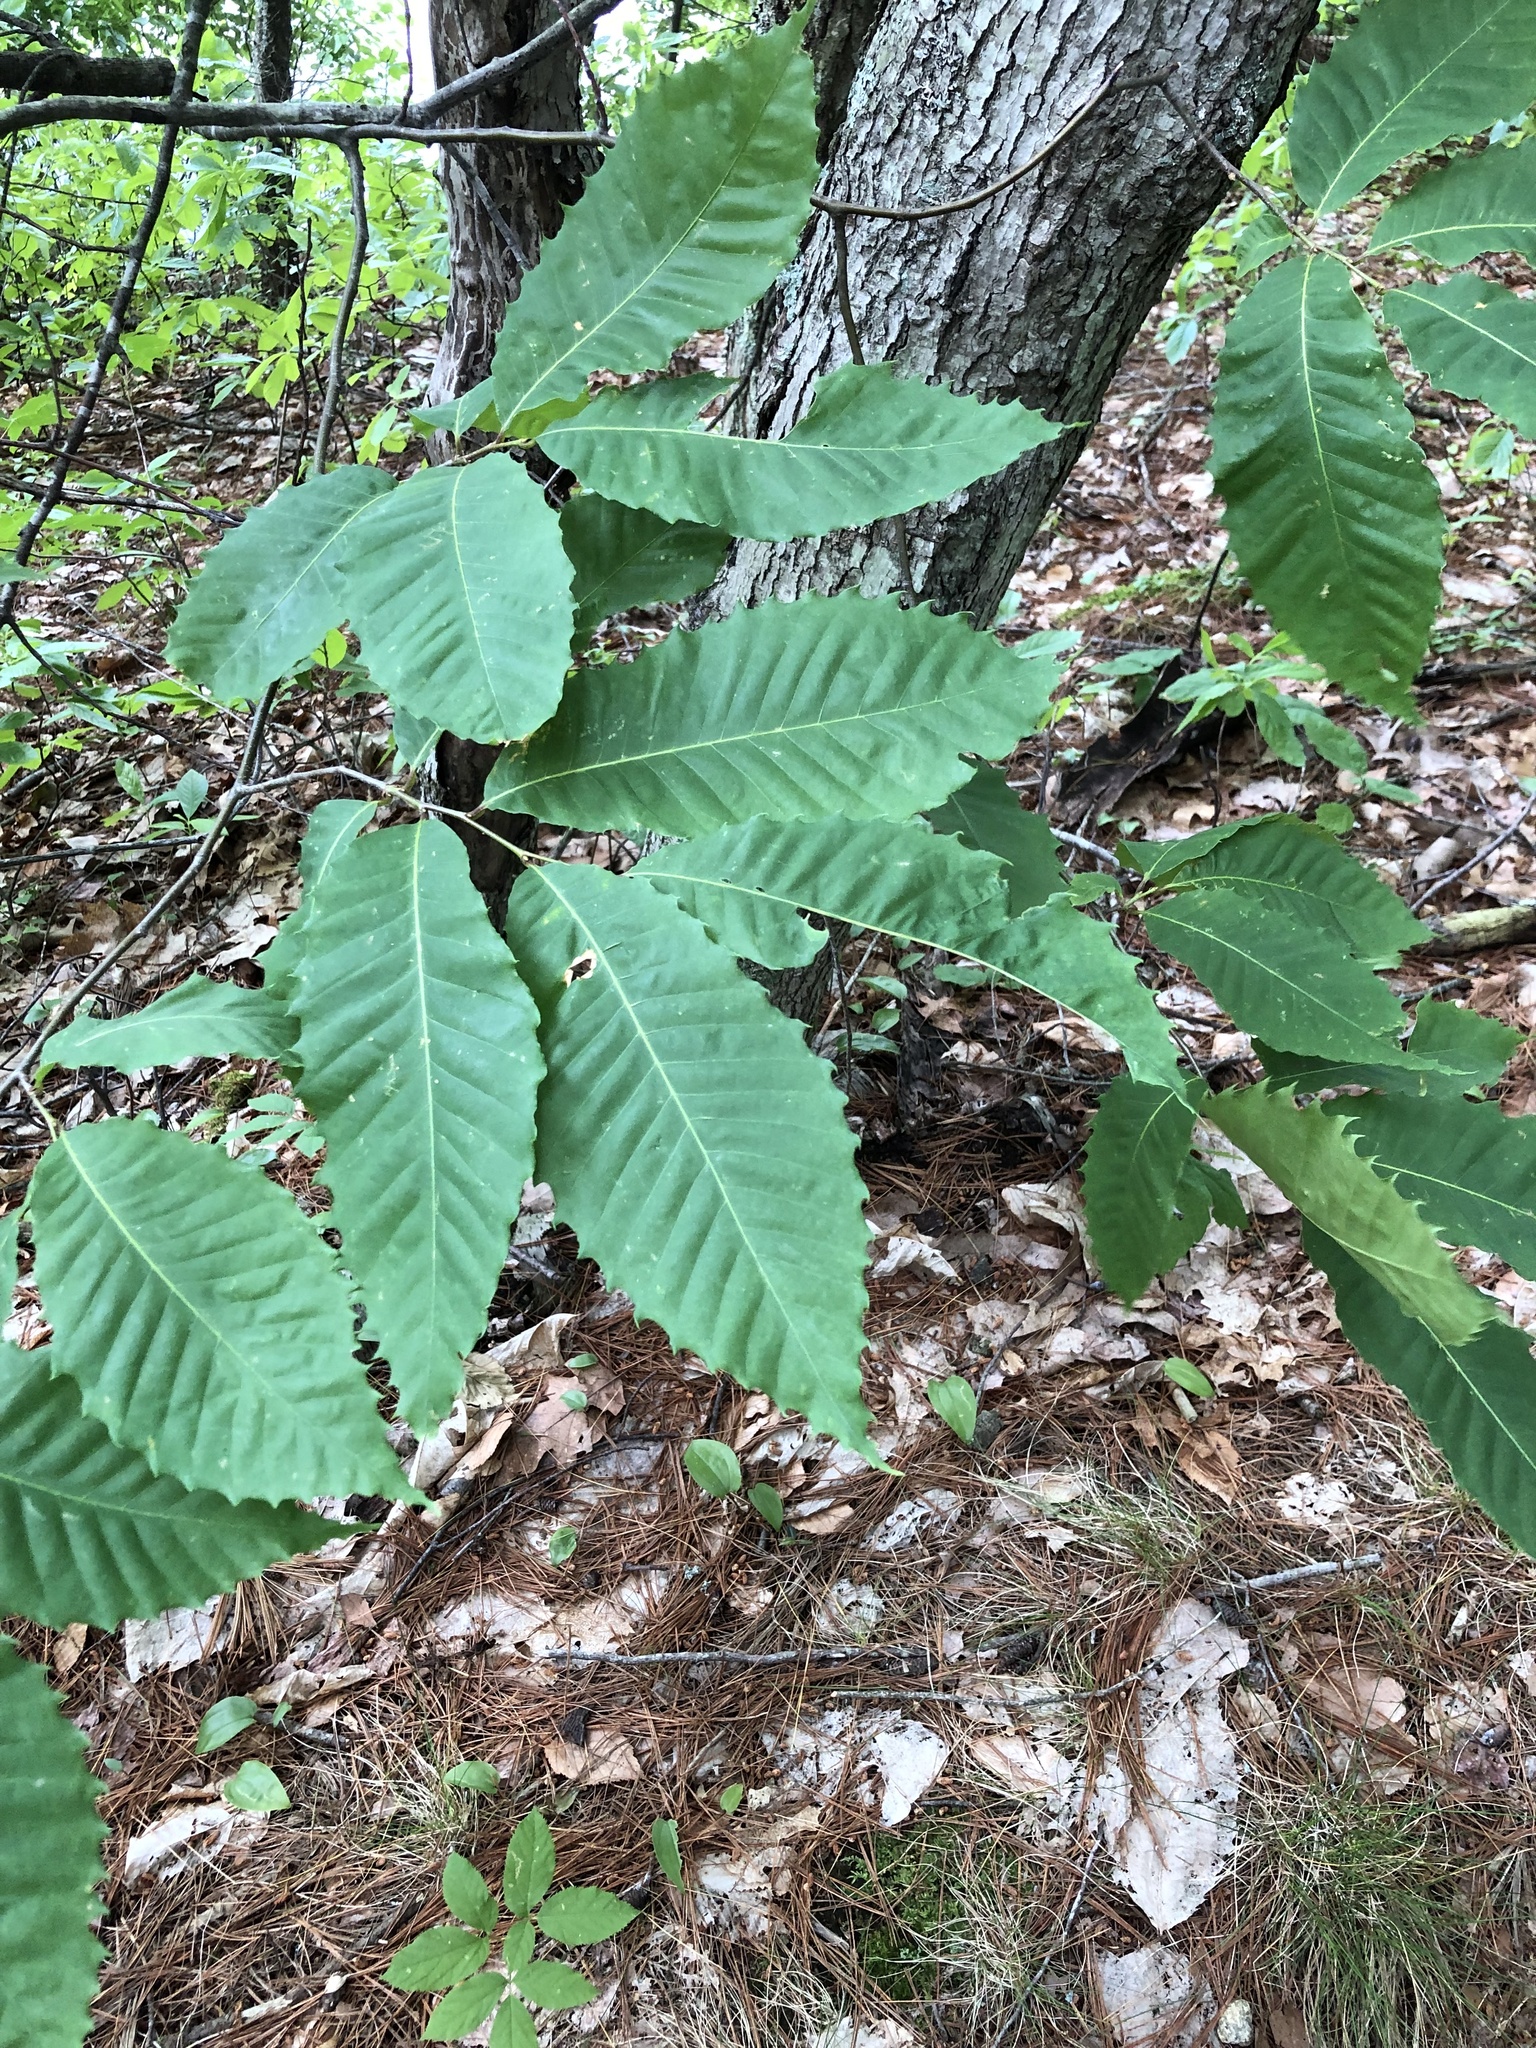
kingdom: Plantae
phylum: Tracheophyta
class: Magnoliopsida
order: Fagales
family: Fagaceae
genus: Castanea
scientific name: Castanea dentata
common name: American chestnut
